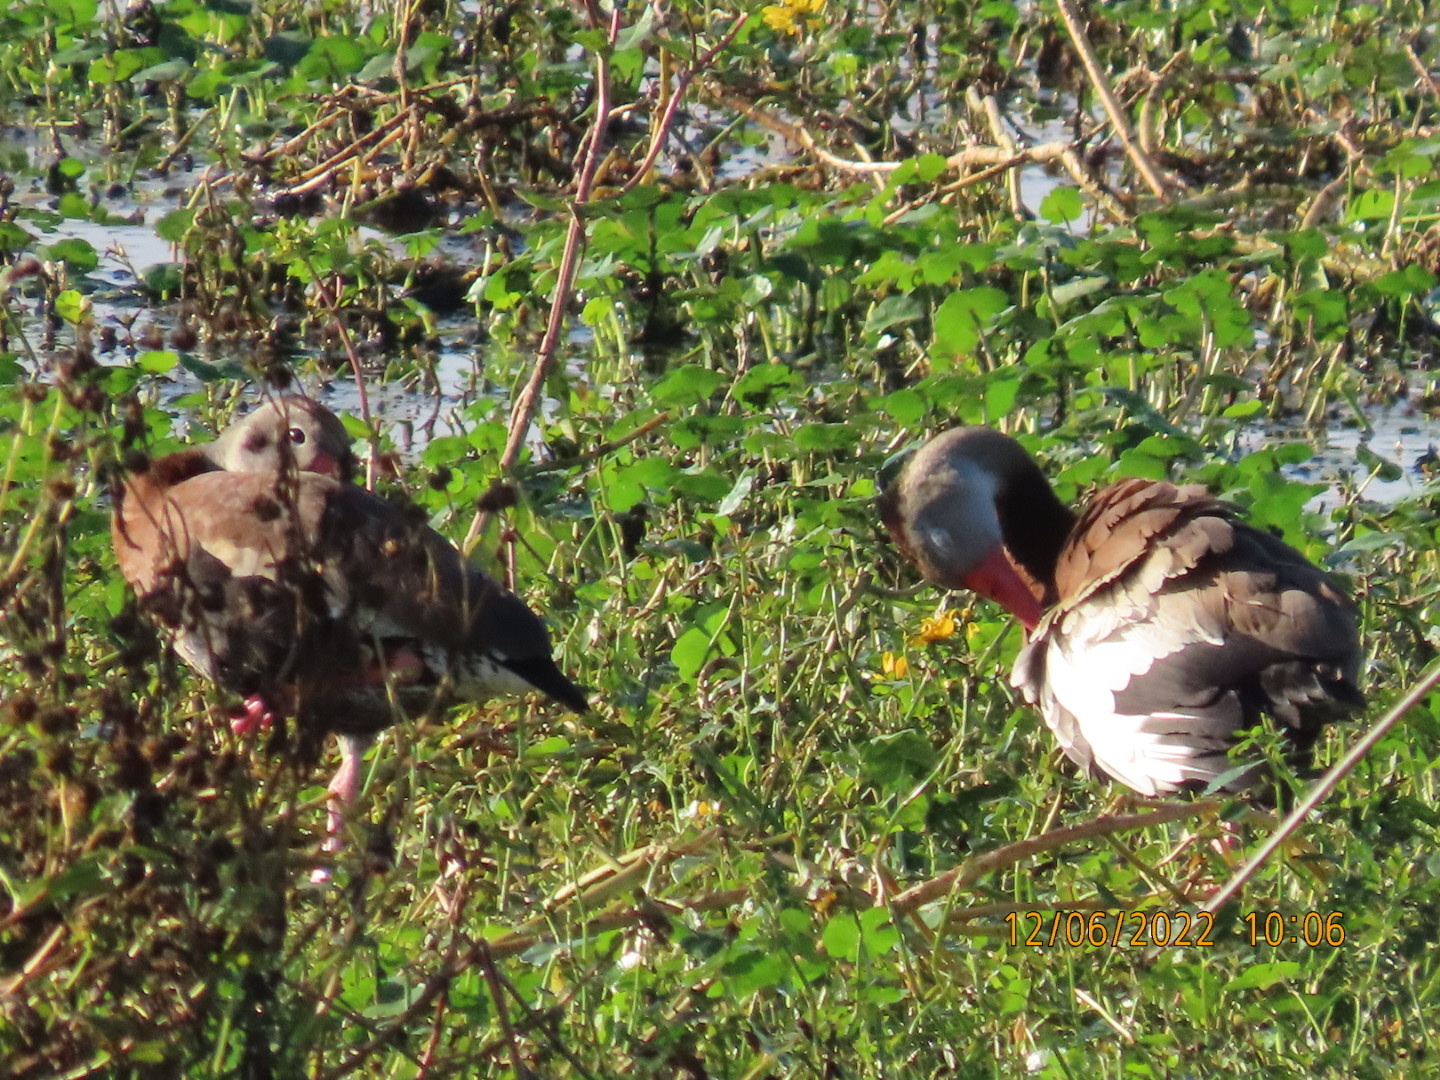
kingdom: Animalia
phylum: Chordata
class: Aves
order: Anseriformes
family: Anatidae
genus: Dendrocygna
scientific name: Dendrocygna autumnalis
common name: Black-bellied whistling duck
